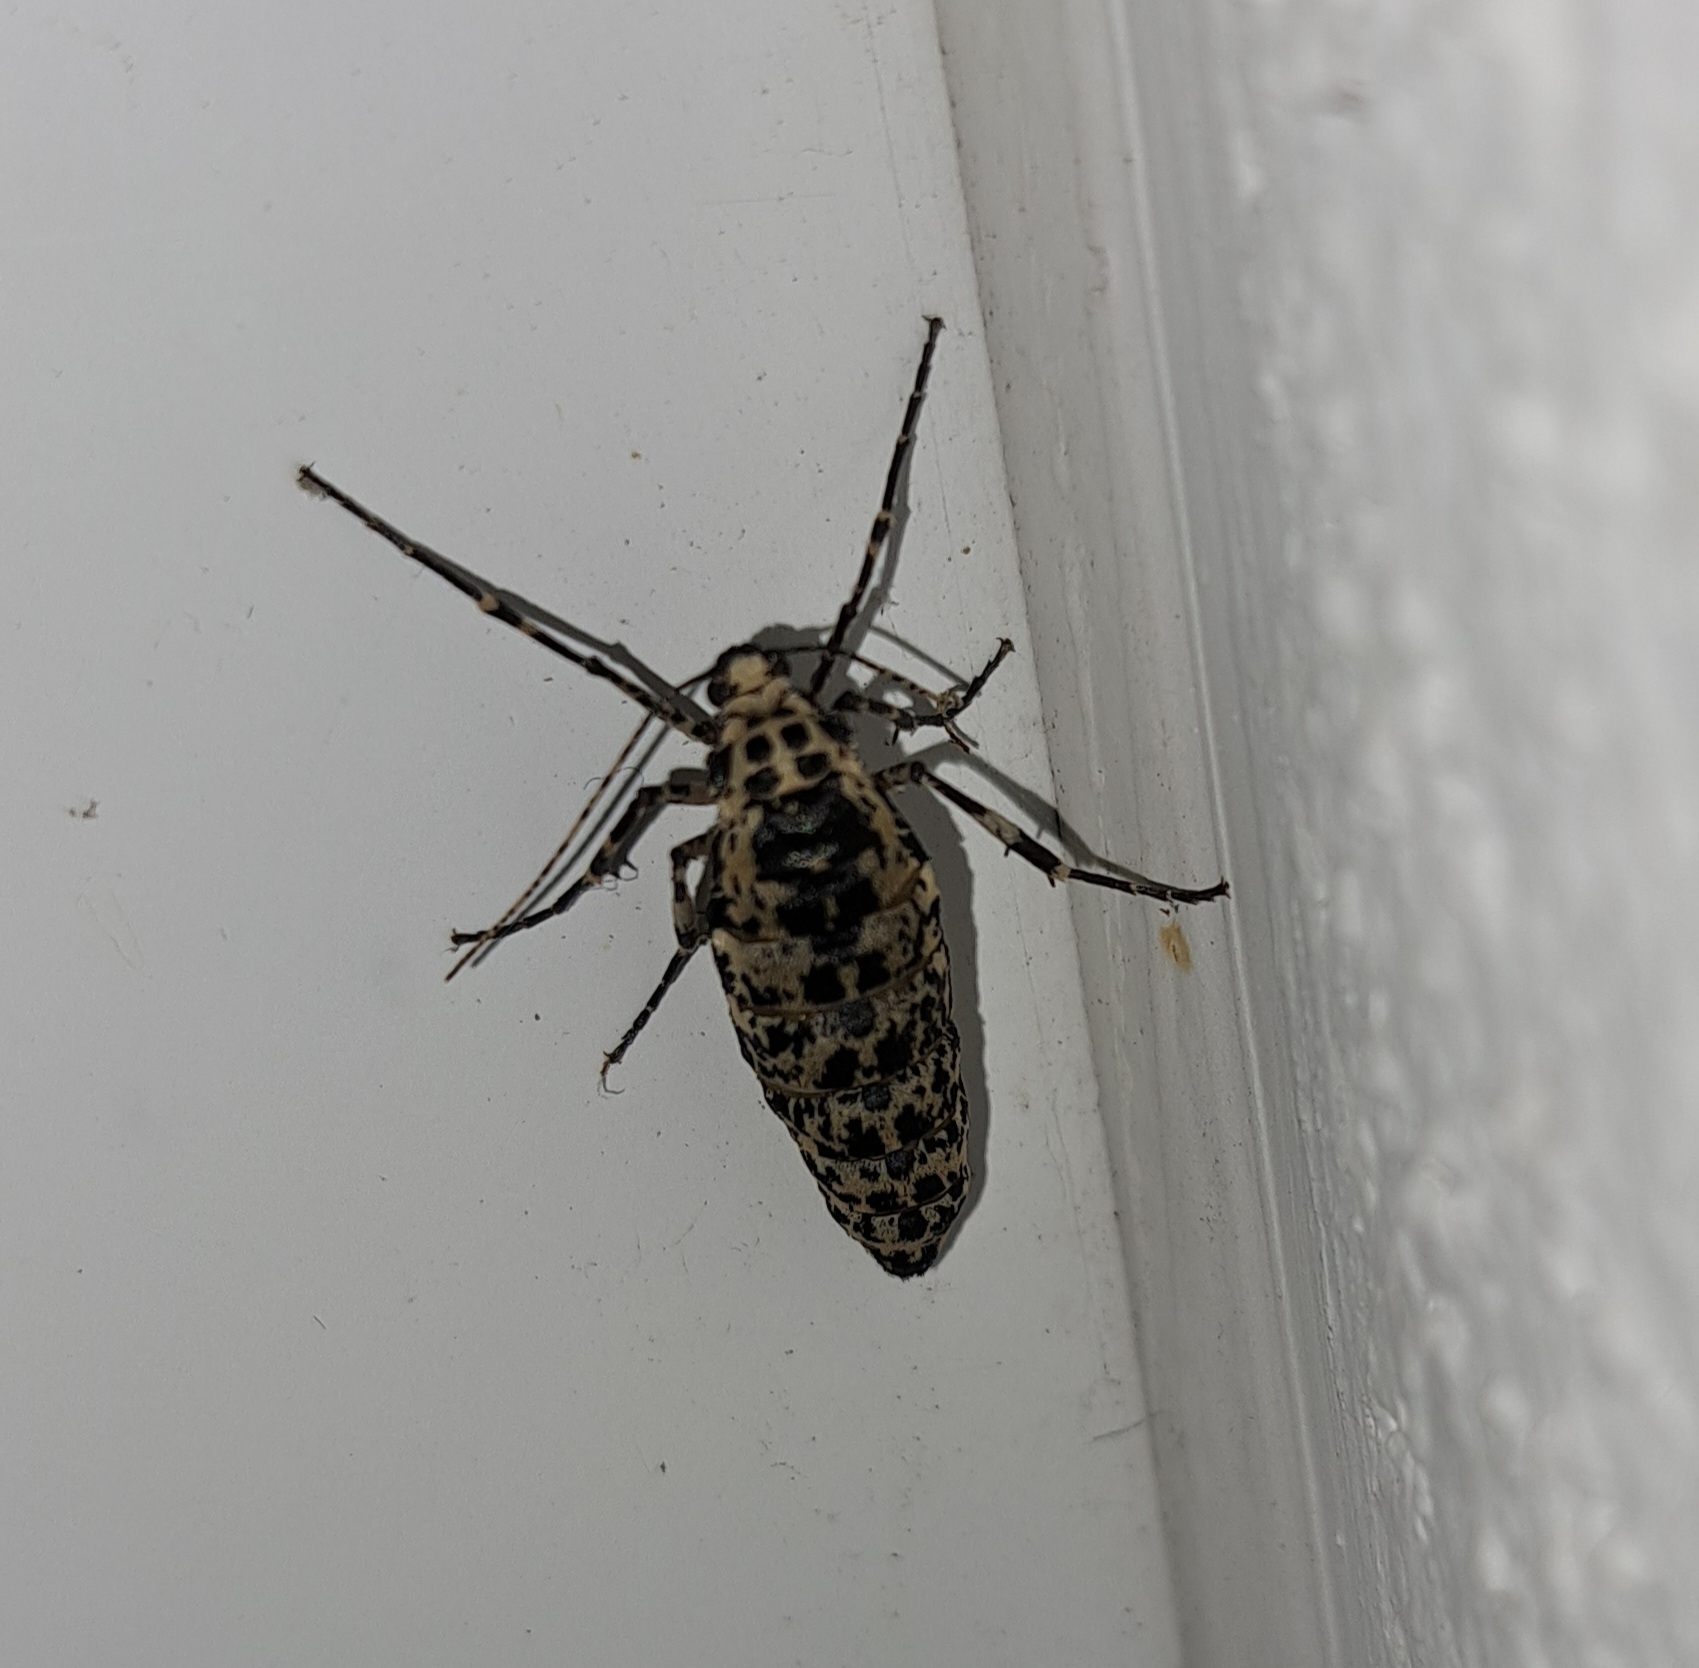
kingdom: Animalia
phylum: Arthropoda
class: Insecta
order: Lepidoptera
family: Geometridae
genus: Erannis
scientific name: Erannis defoliaria
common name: Mottled umber
